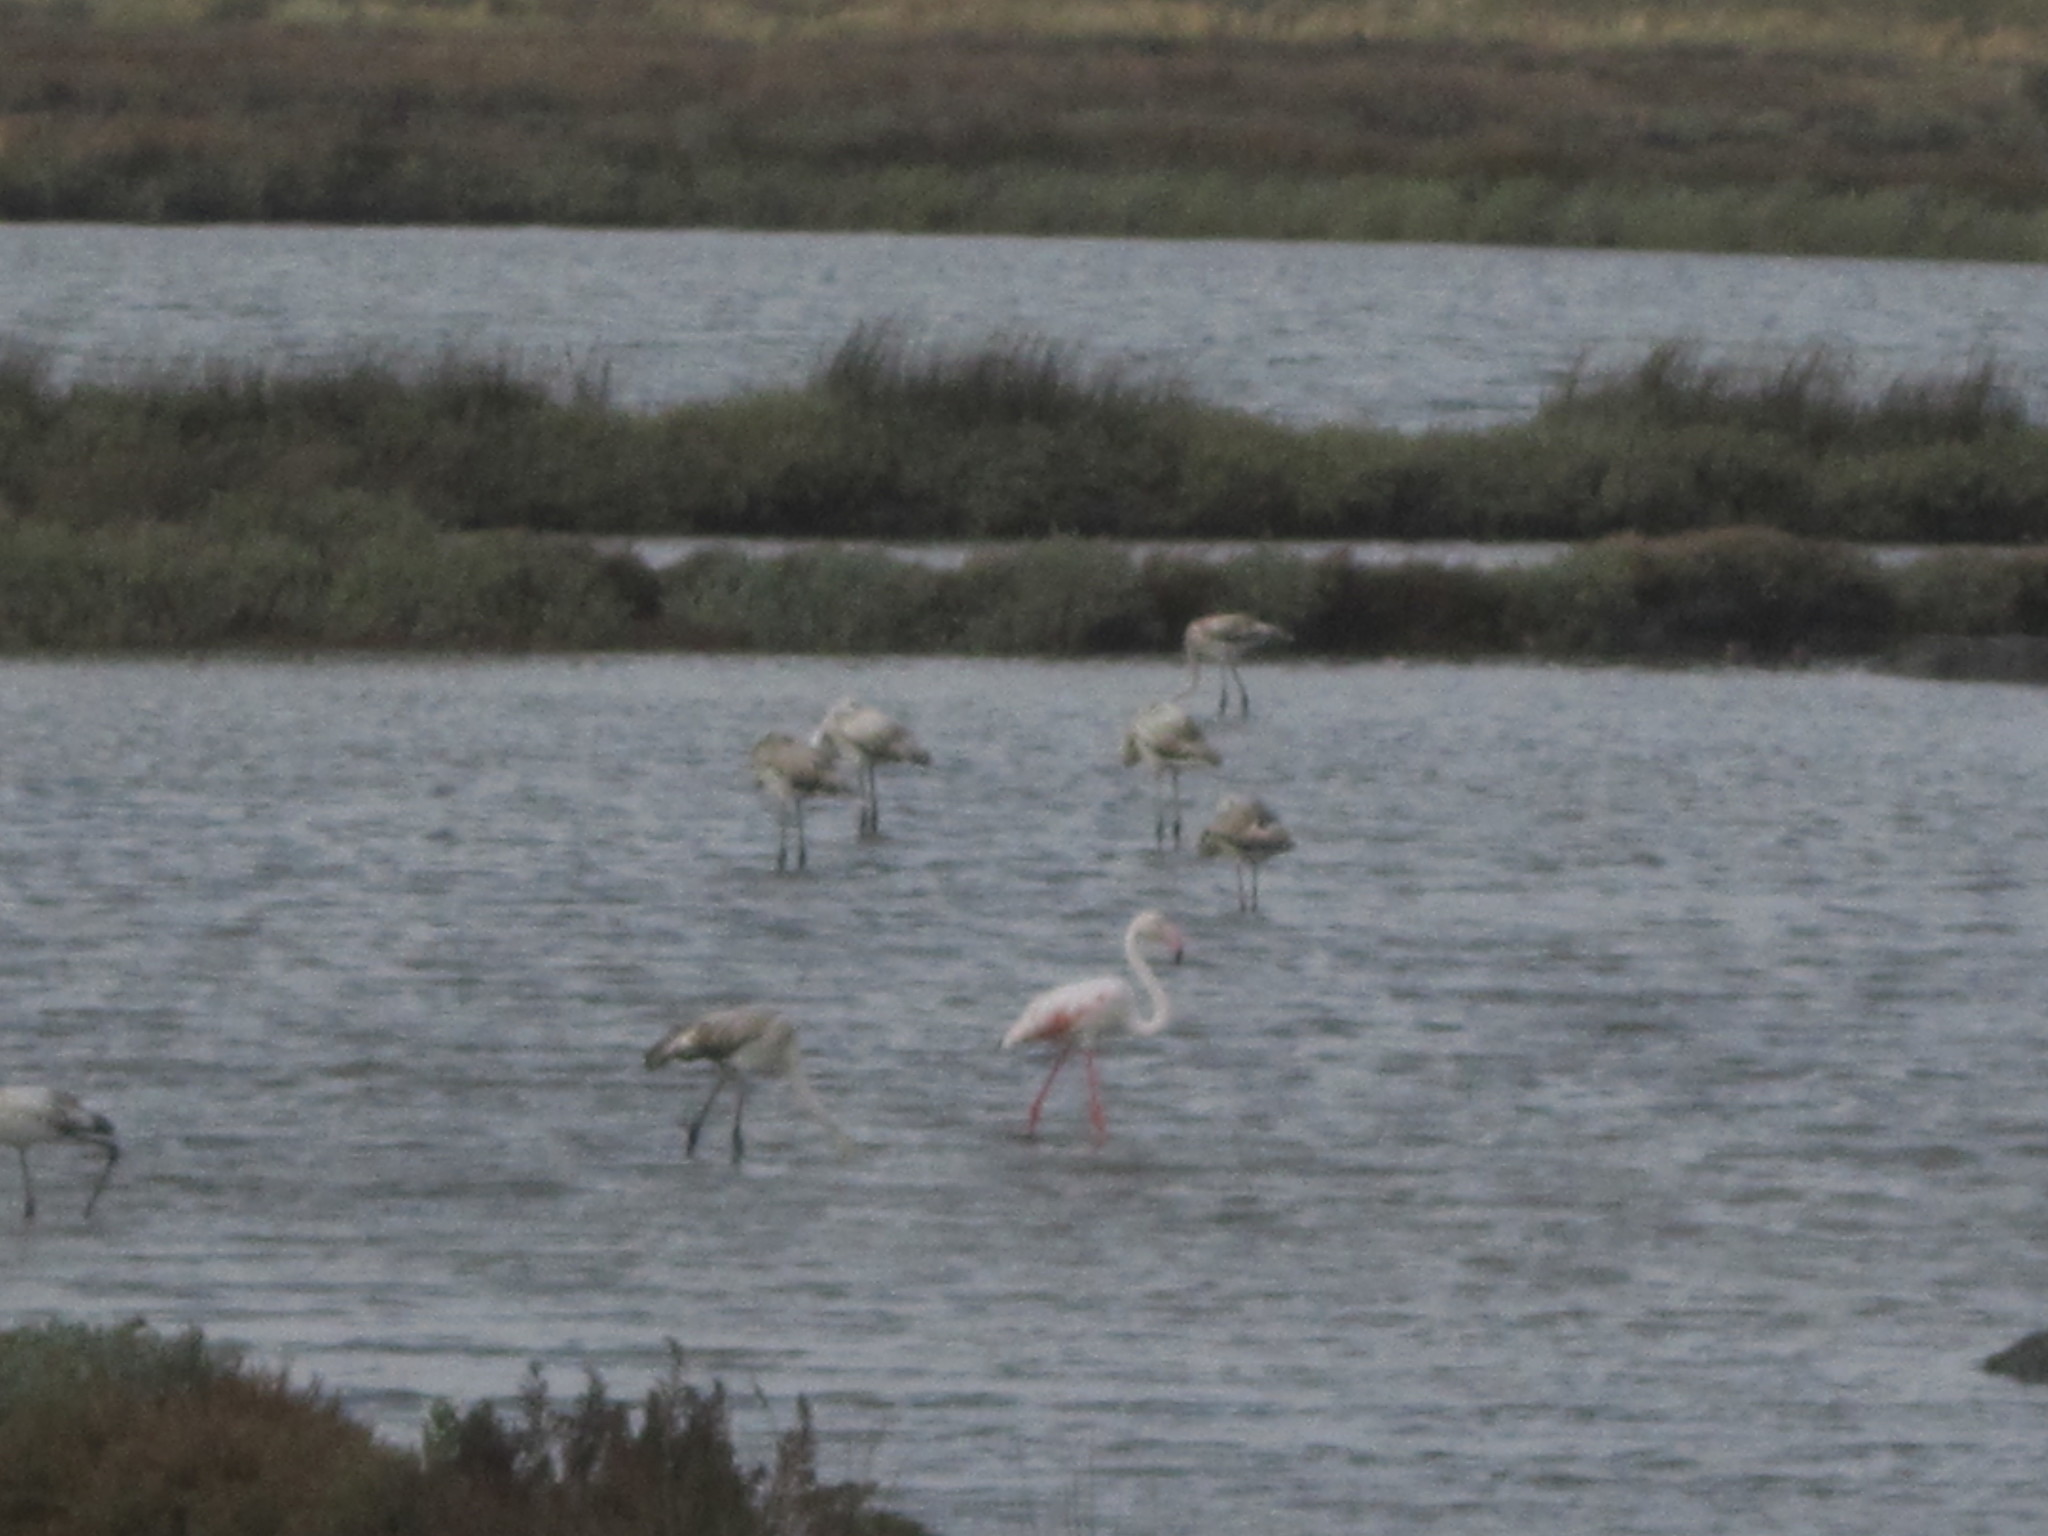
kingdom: Animalia
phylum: Chordata
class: Aves
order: Phoenicopteriformes
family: Phoenicopteridae
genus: Phoenicopterus
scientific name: Phoenicopterus roseus
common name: Greater flamingo
